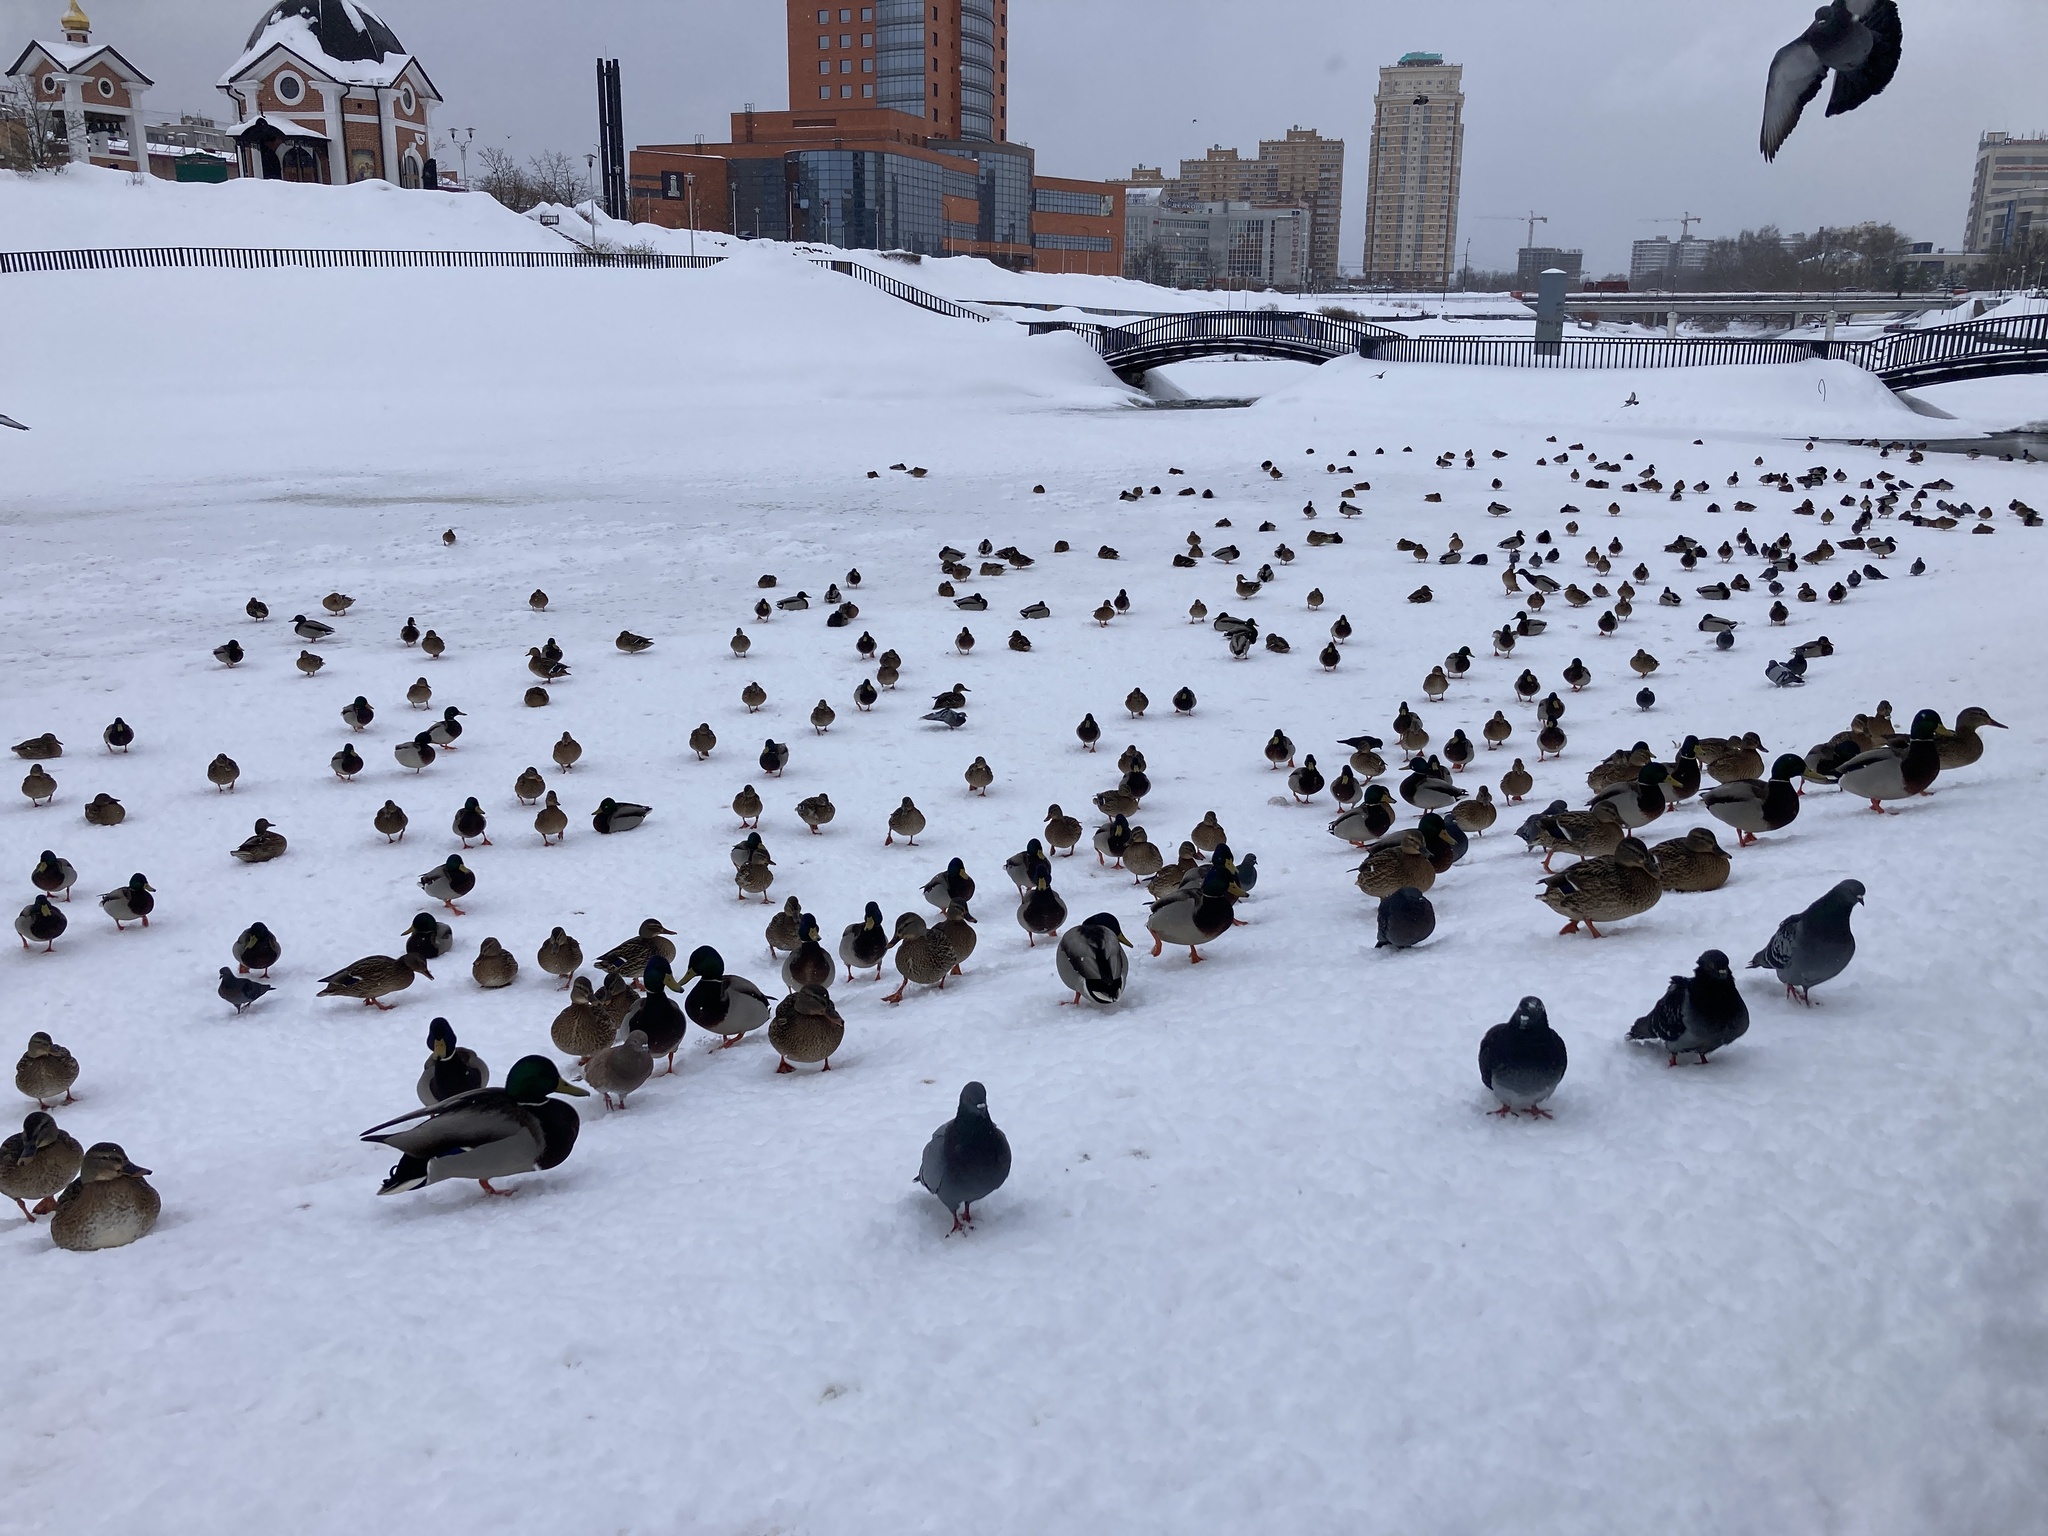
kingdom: Animalia
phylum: Chordata
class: Aves
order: Anseriformes
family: Anatidae
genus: Anas
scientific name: Anas platyrhynchos
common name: Mallard
